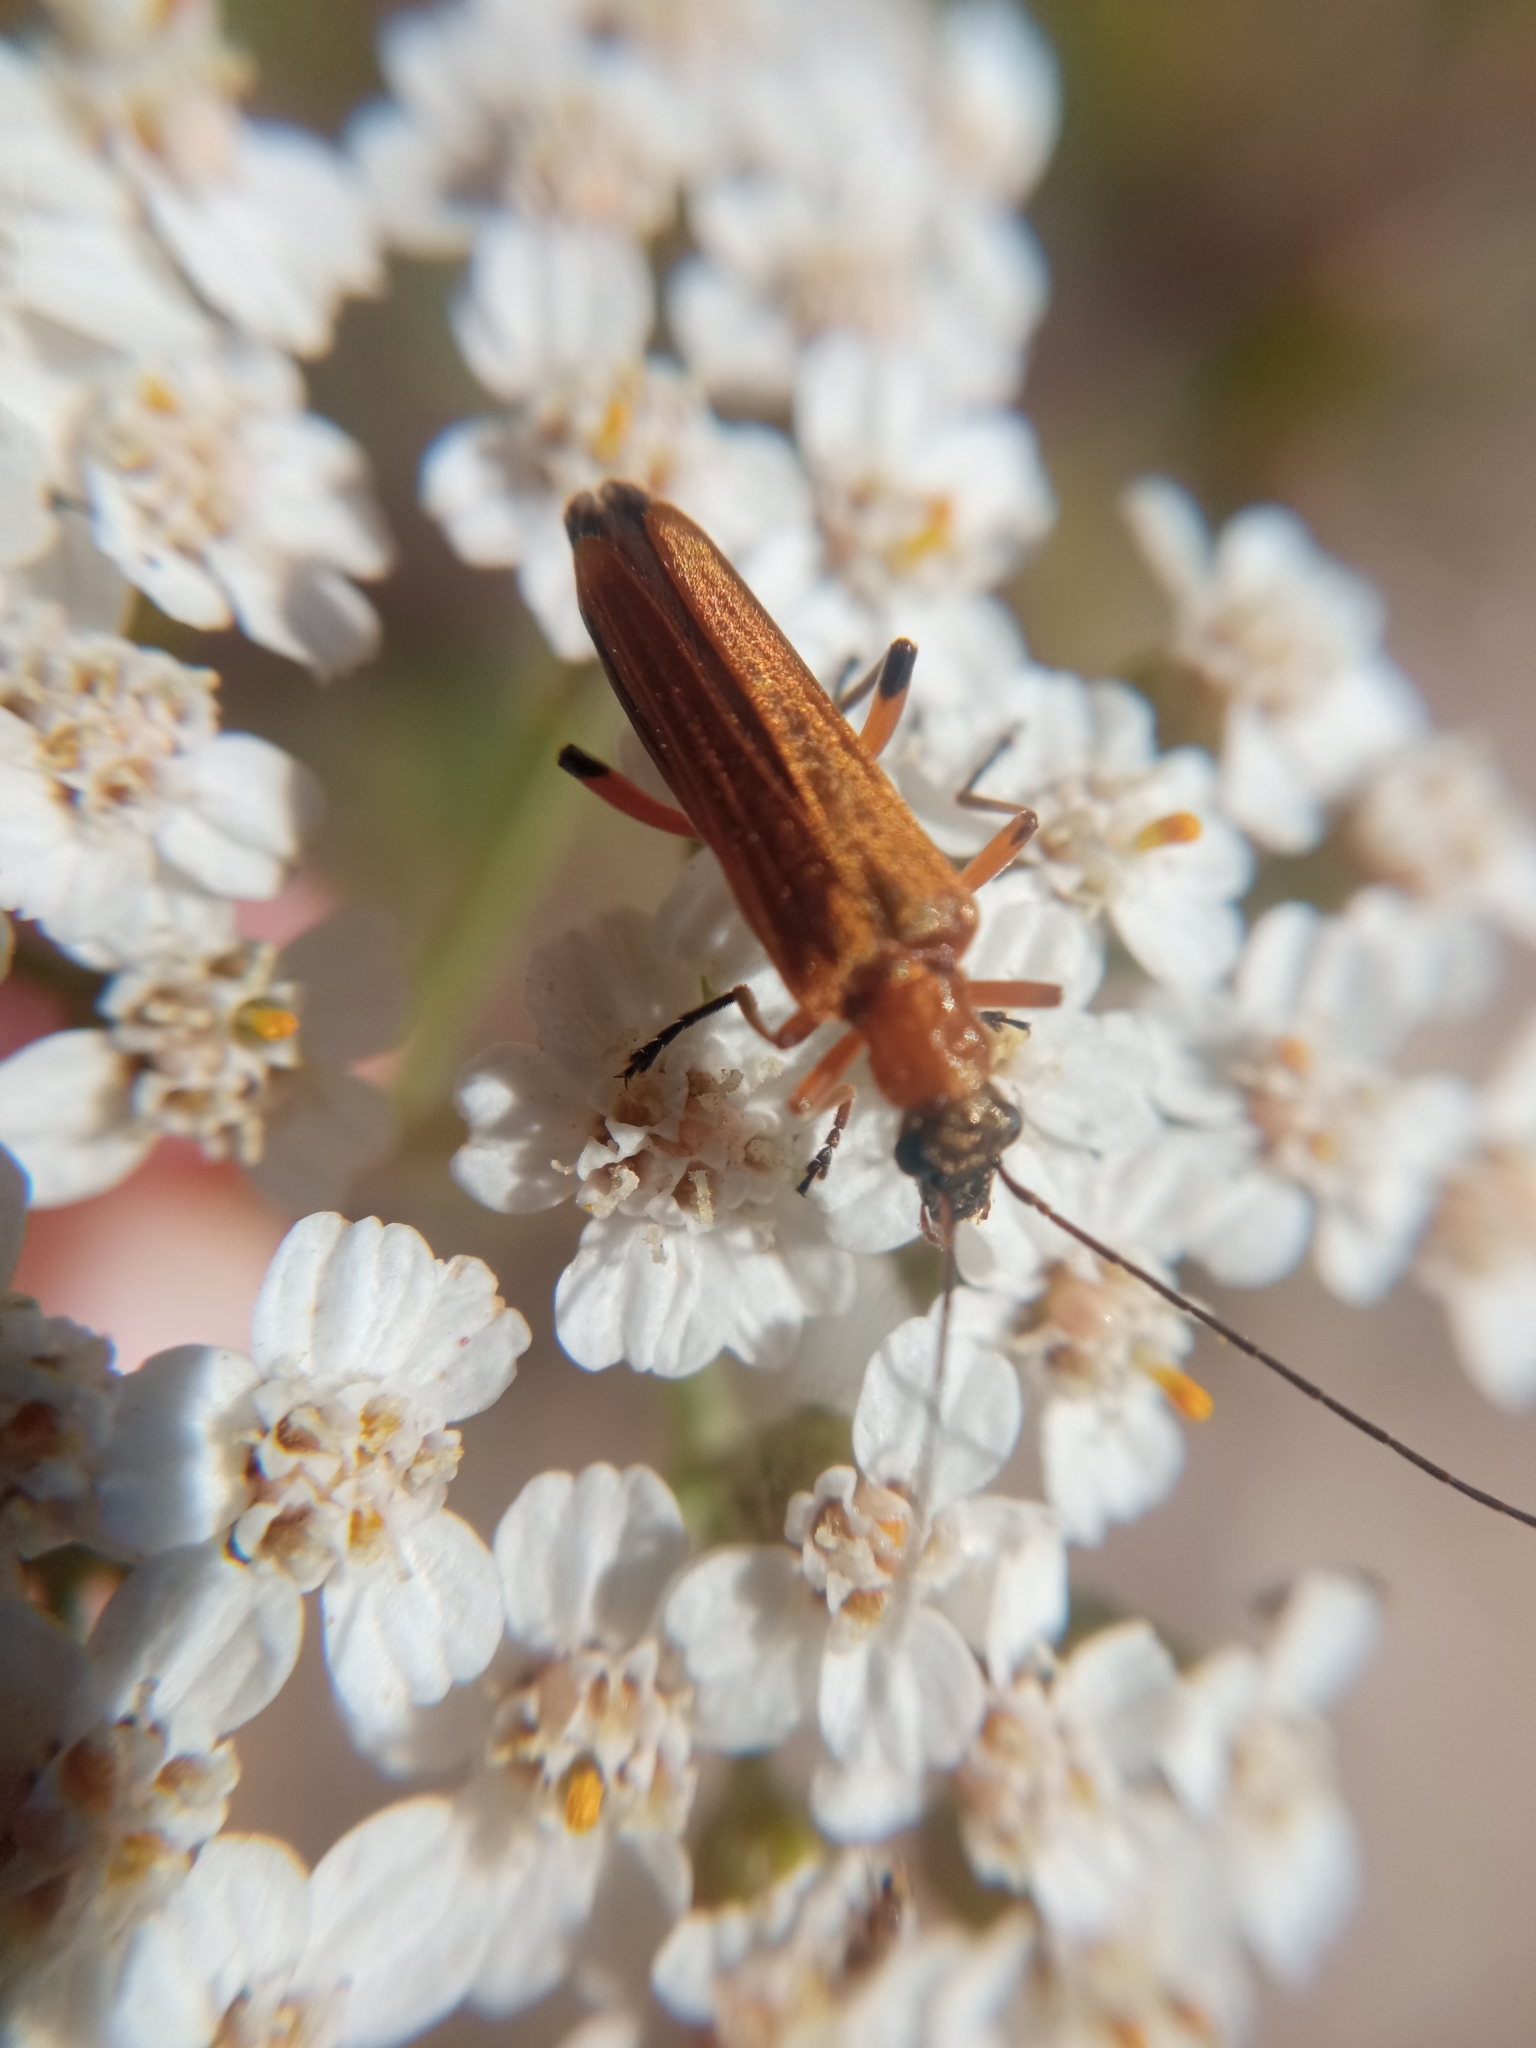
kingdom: Animalia
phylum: Arthropoda
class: Insecta
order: Coleoptera
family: Oedemeridae
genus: Oedemera
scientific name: Oedemera podagrariae
